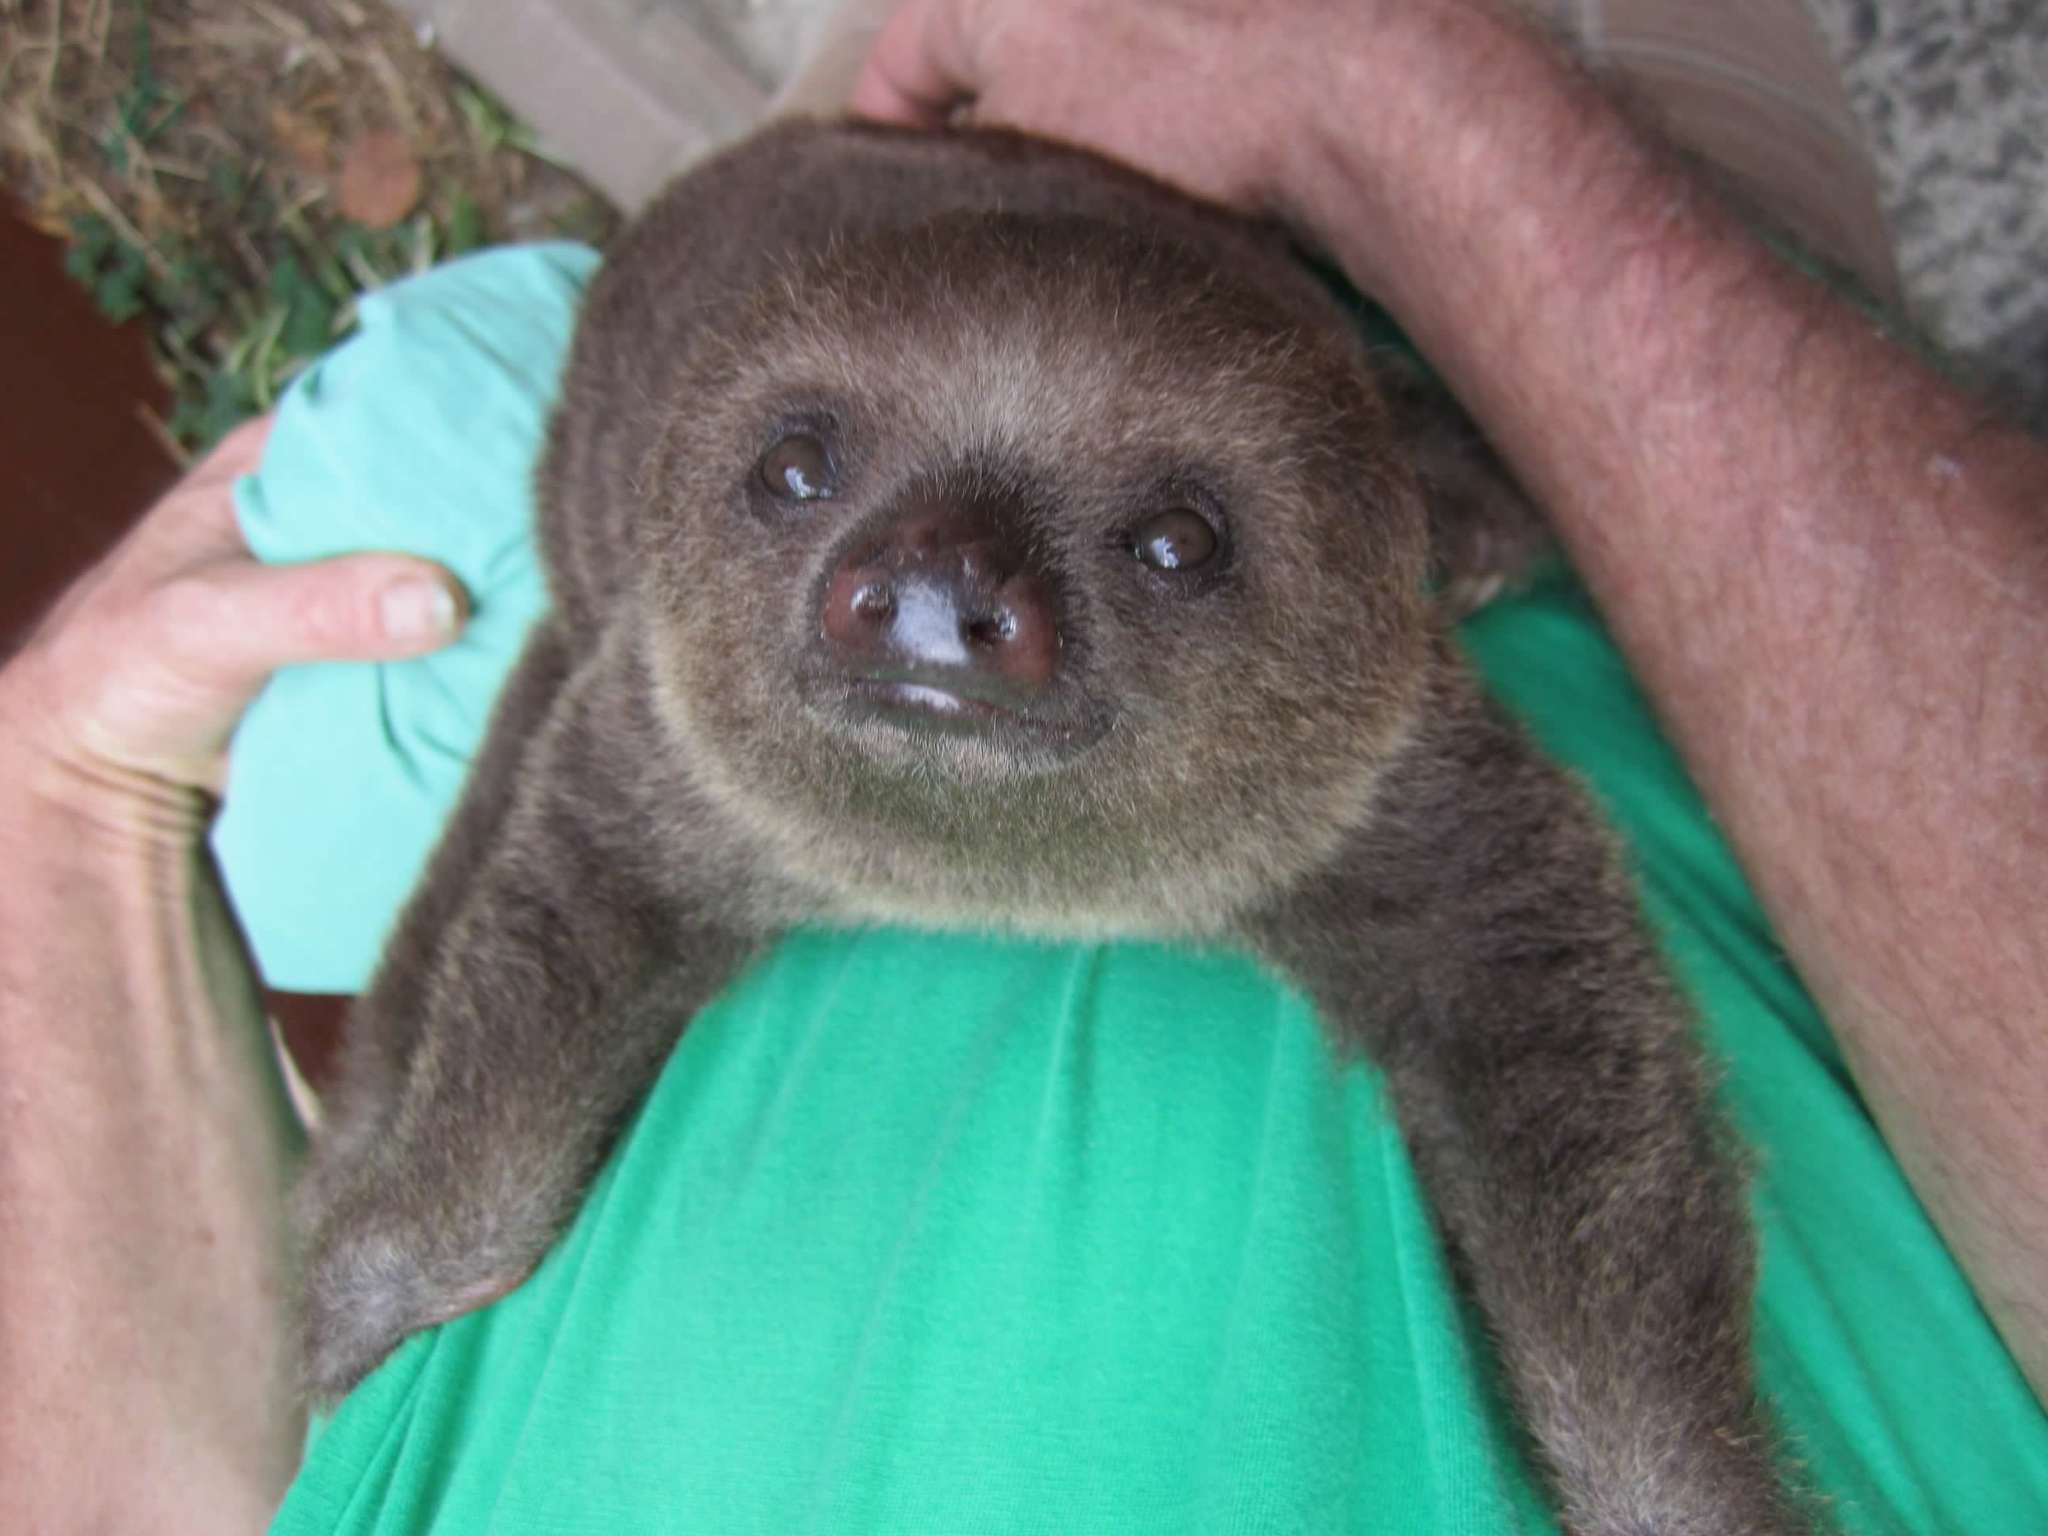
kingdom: Animalia
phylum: Chordata
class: Mammalia
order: Pilosa
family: Megalonychidae
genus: Choloepus
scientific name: Choloepus hoffmanni
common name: Hoffmann's two-toed sloth
